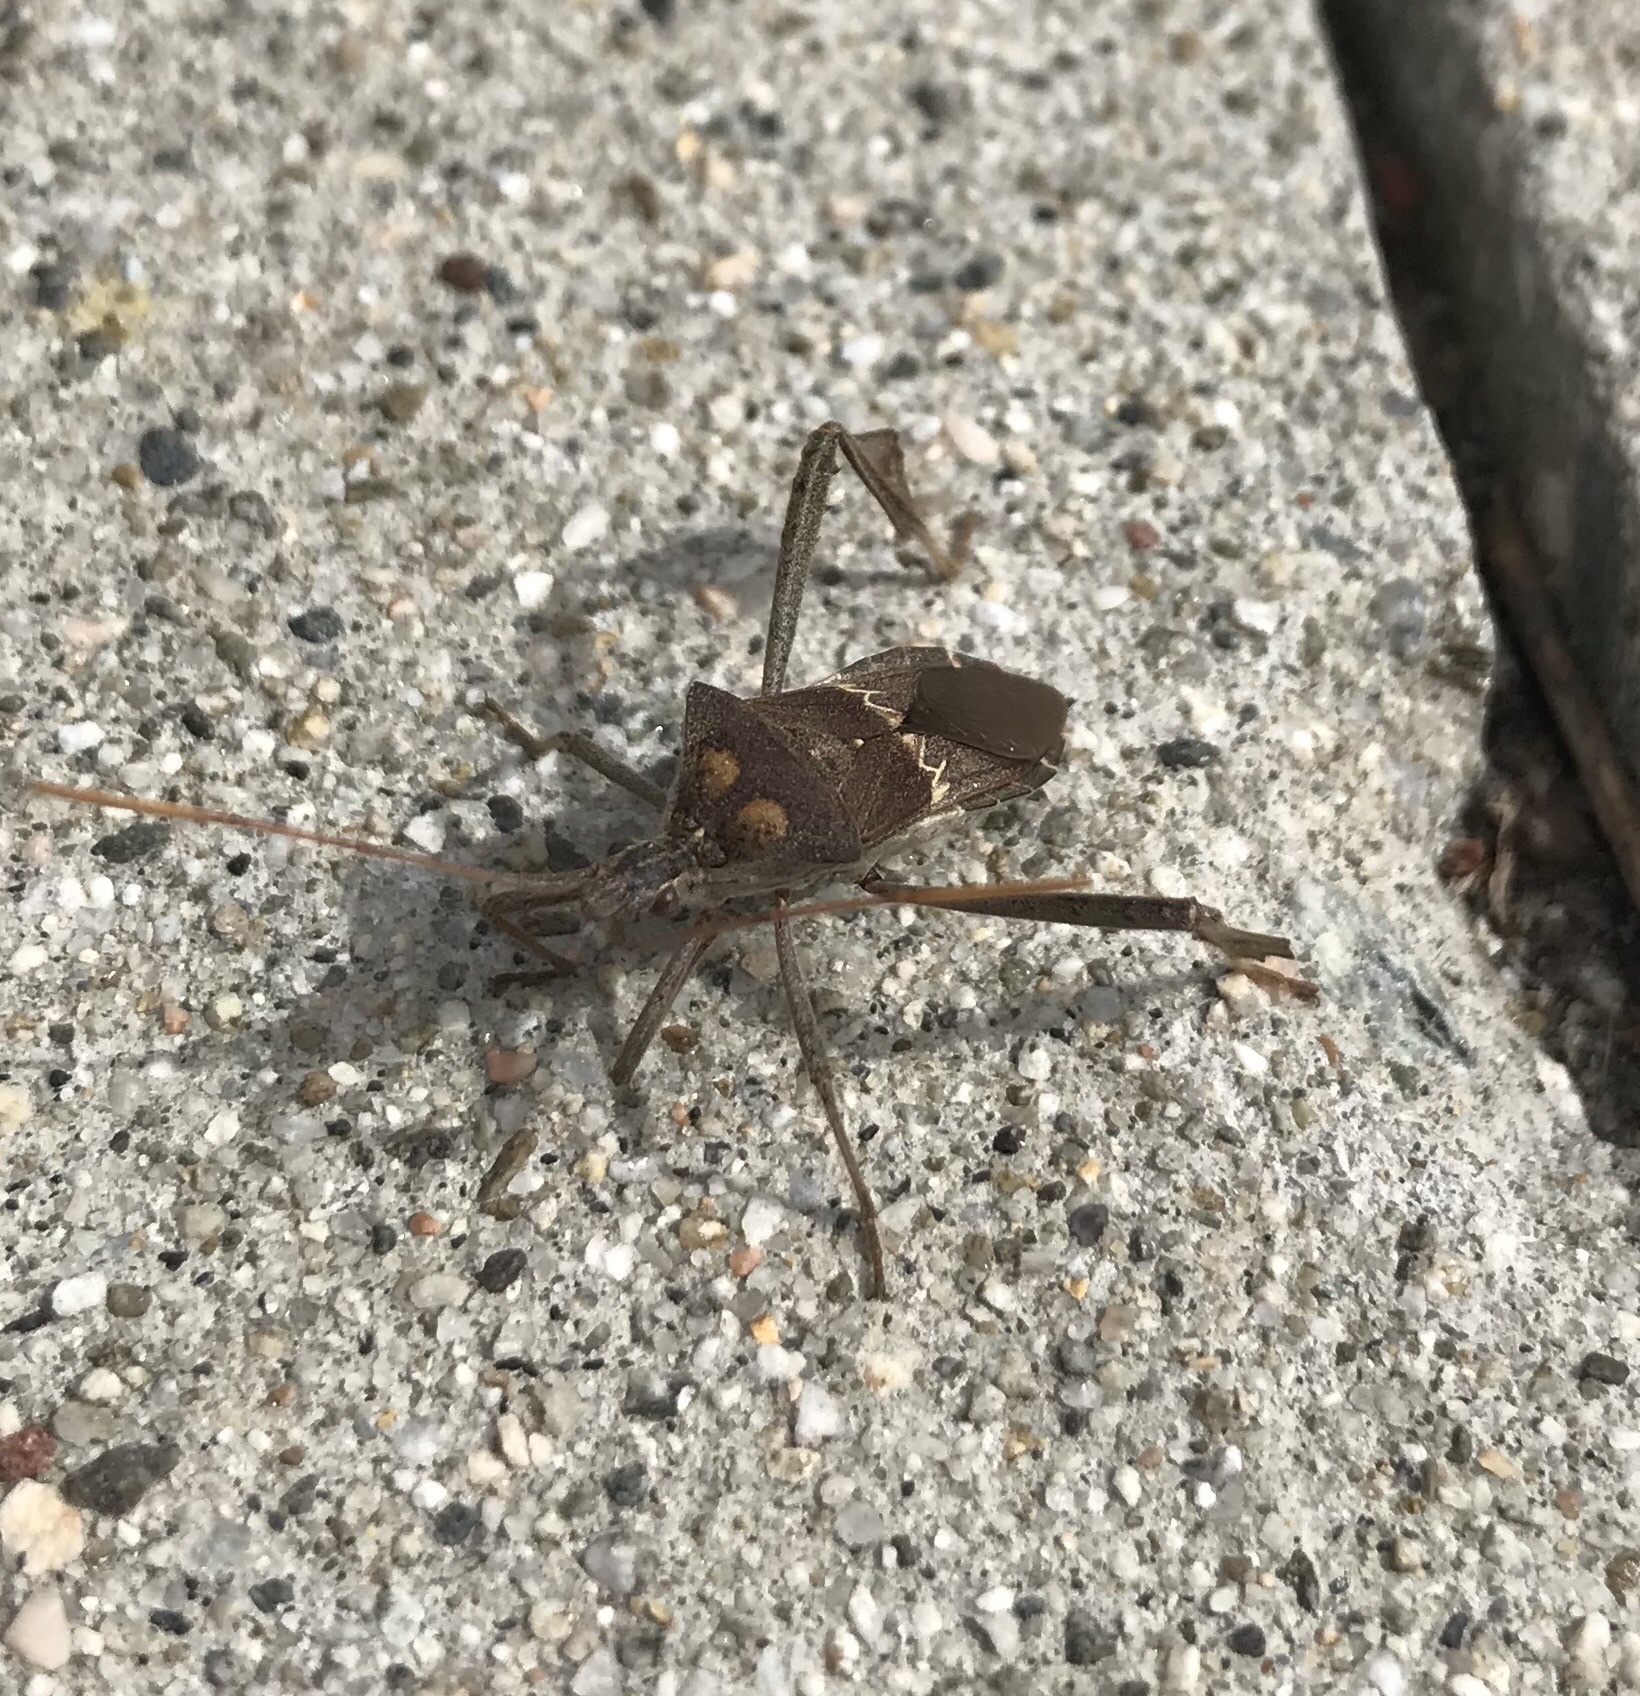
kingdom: Animalia
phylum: Arthropoda
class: Insecta
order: Hemiptera
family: Coreidae
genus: Leptoglossus
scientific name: Leptoglossus zonatus
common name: Large-legged bug
